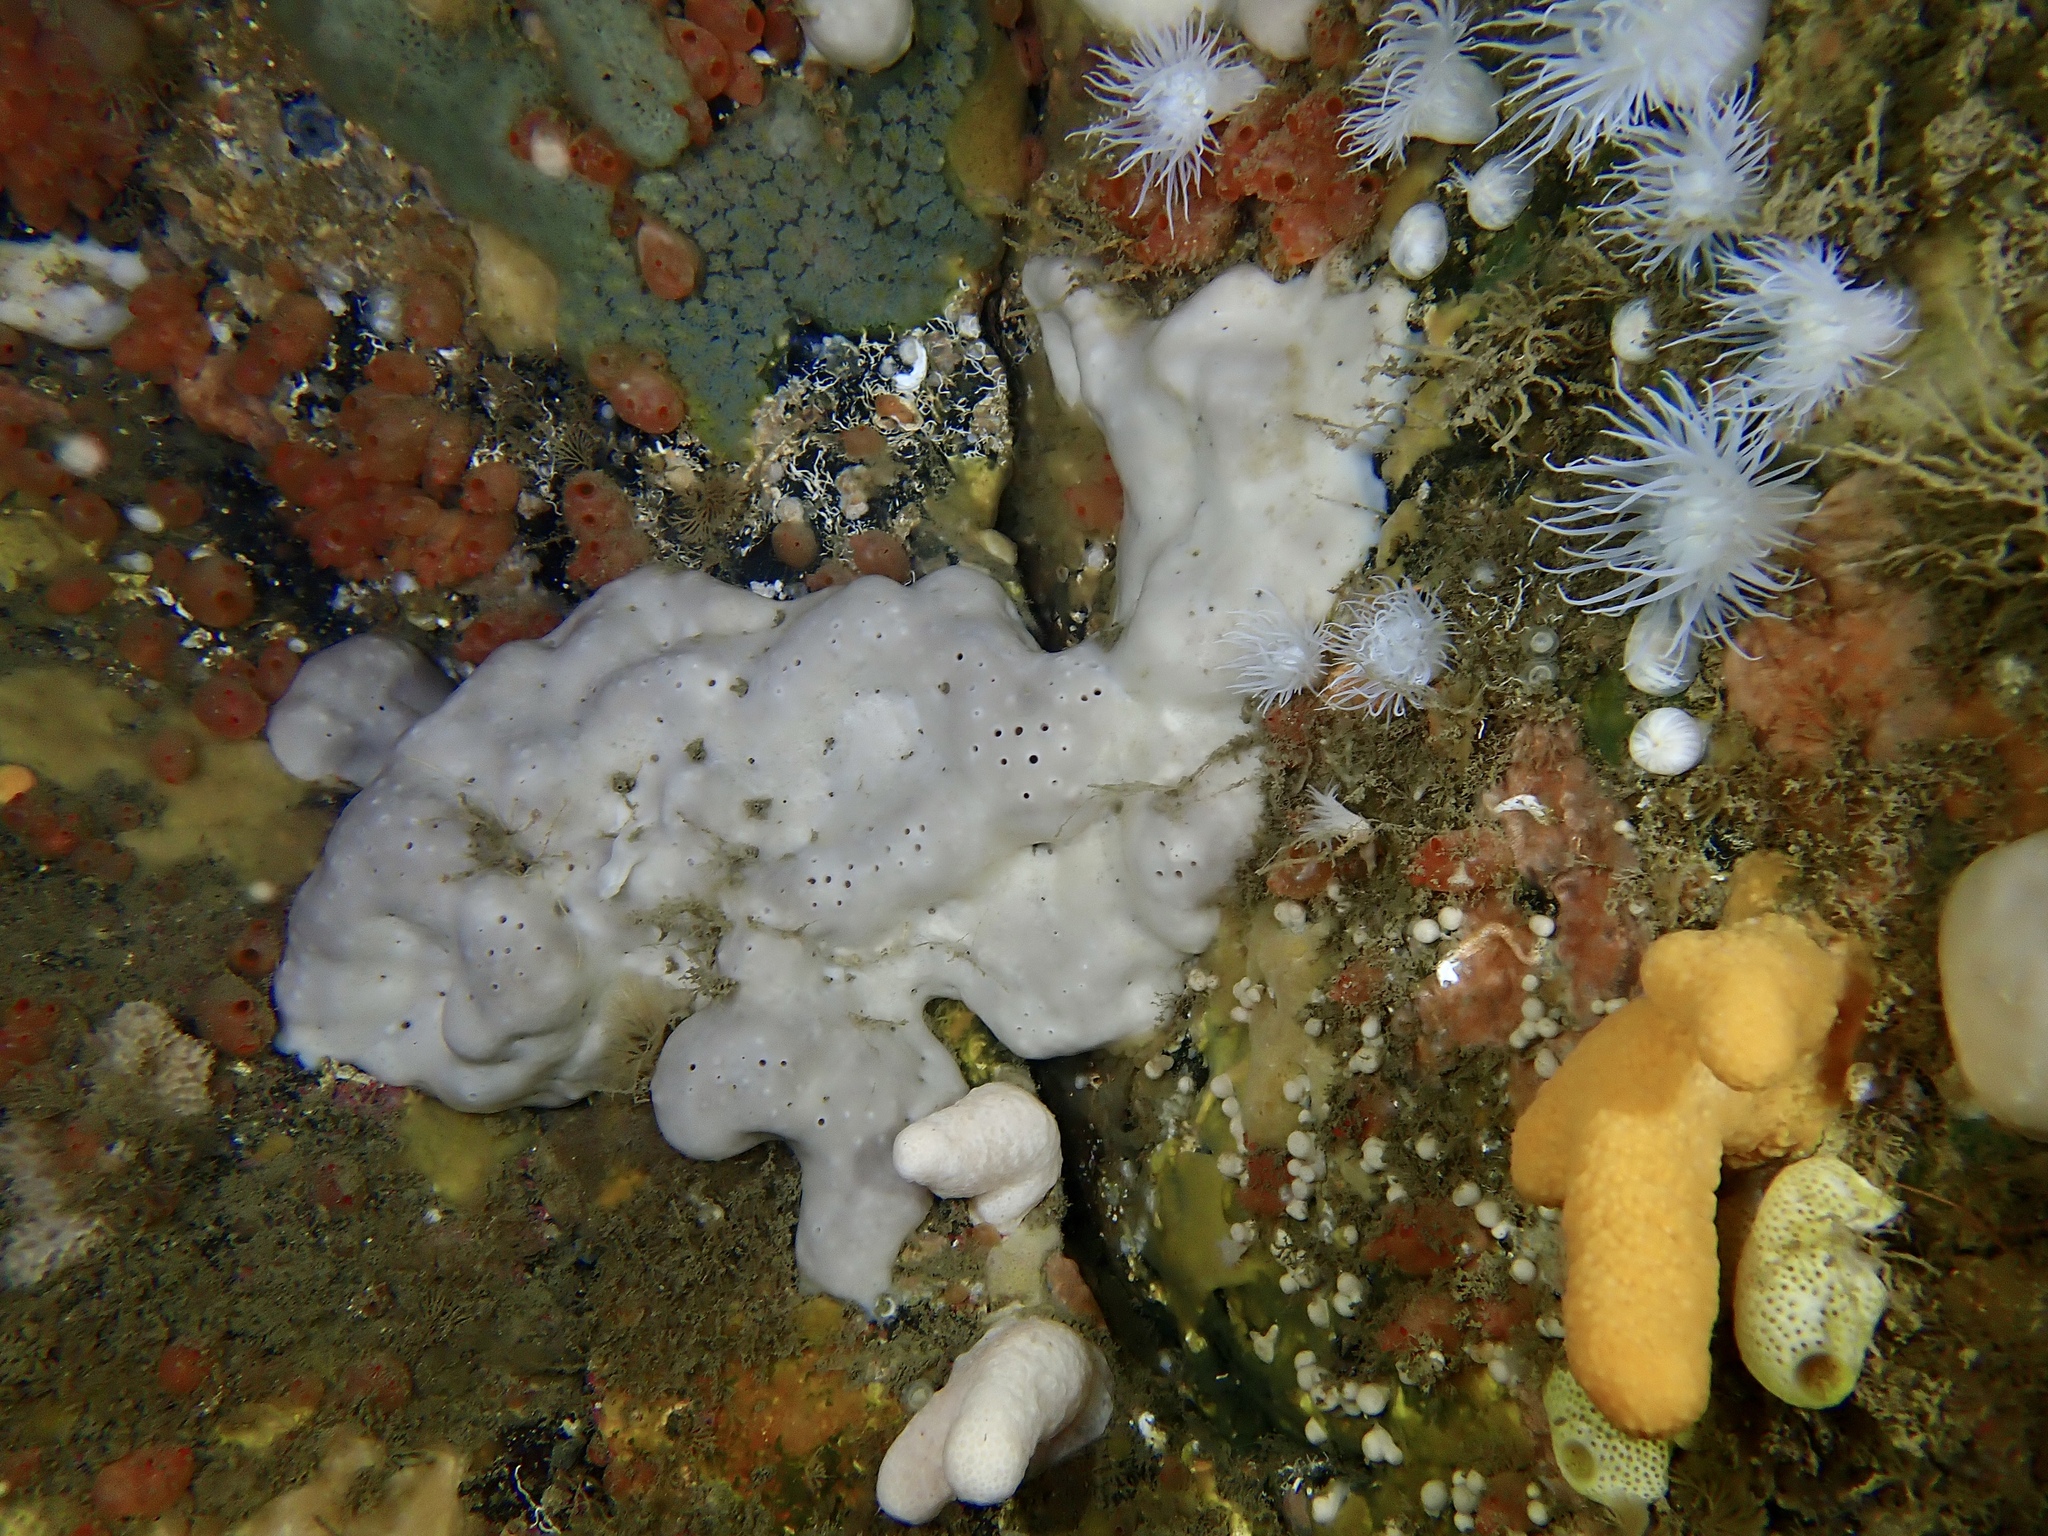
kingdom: Animalia
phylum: Porifera
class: Demospongiae
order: Tetractinellida
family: Geodiidae
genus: Pachymatisma
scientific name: Pachymatisma johnstonia
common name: Elephant ear sponge
